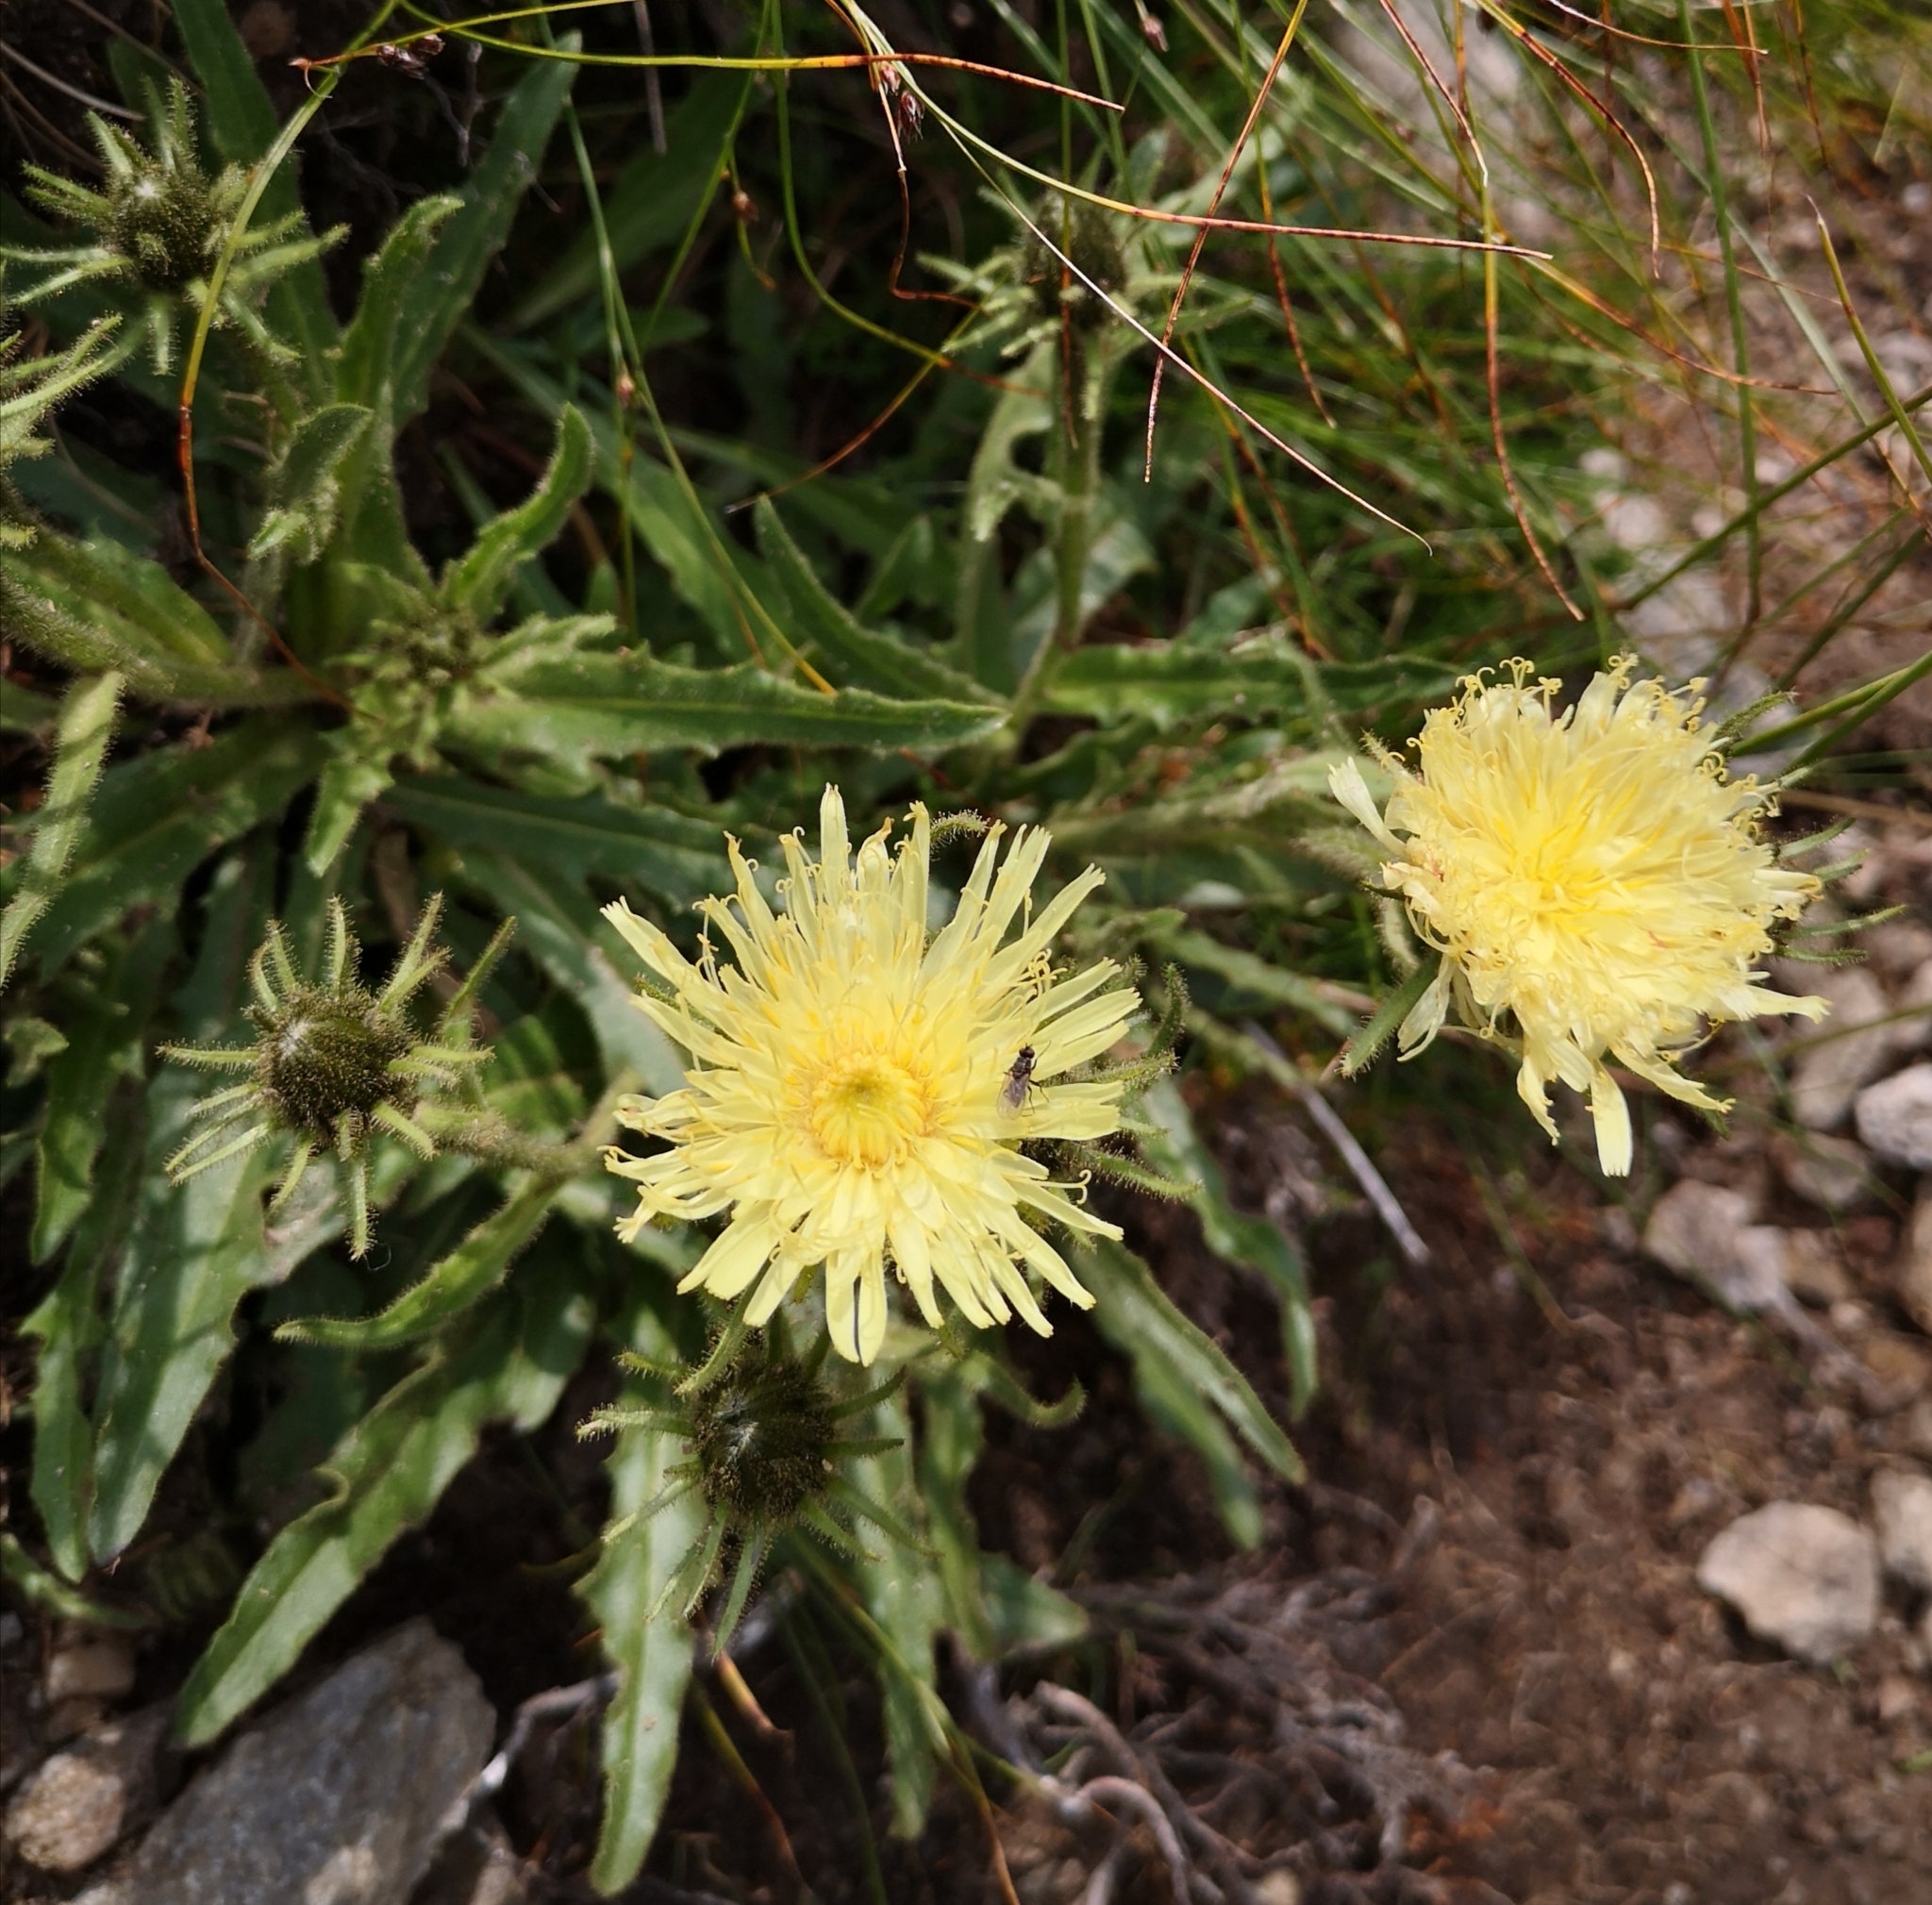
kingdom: Plantae
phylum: Tracheophyta
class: Magnoliopsida
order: Asterales
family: Asteraceae
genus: Schlagintweitia
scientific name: Schlagintweitia intybacea
